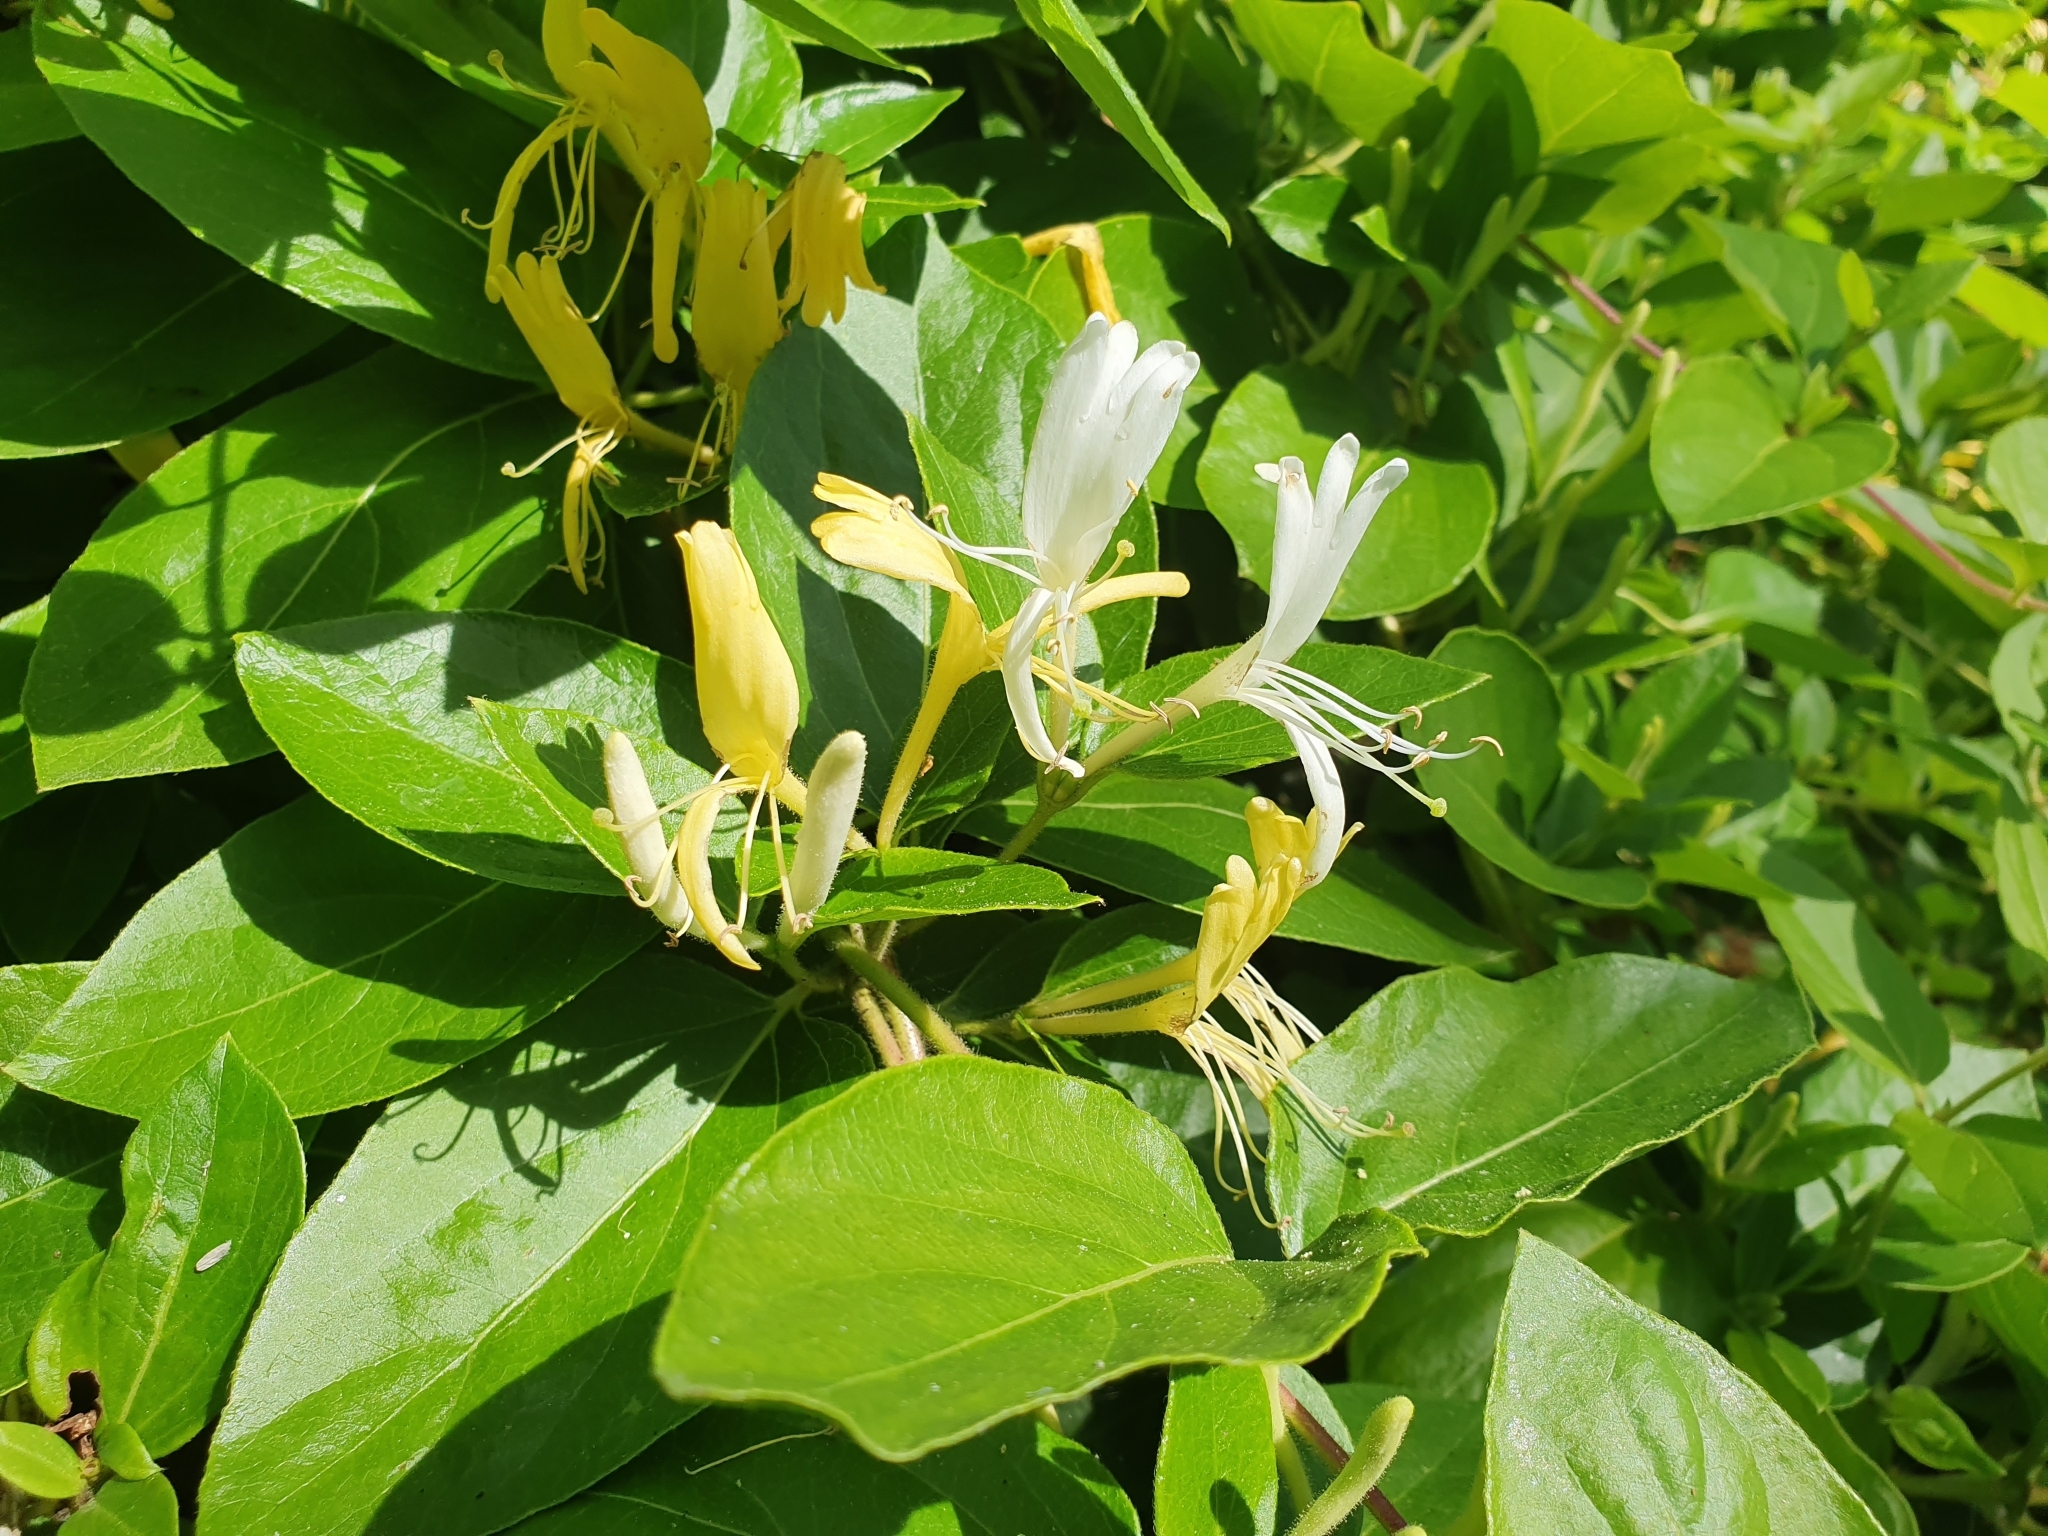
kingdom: Plantae
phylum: Tracheophyta
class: Magnoliopsida
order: Dipsacales
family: Caprifoliaceae
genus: Lonicera
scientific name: Lonicera japonica
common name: Japanese honeysuckle
